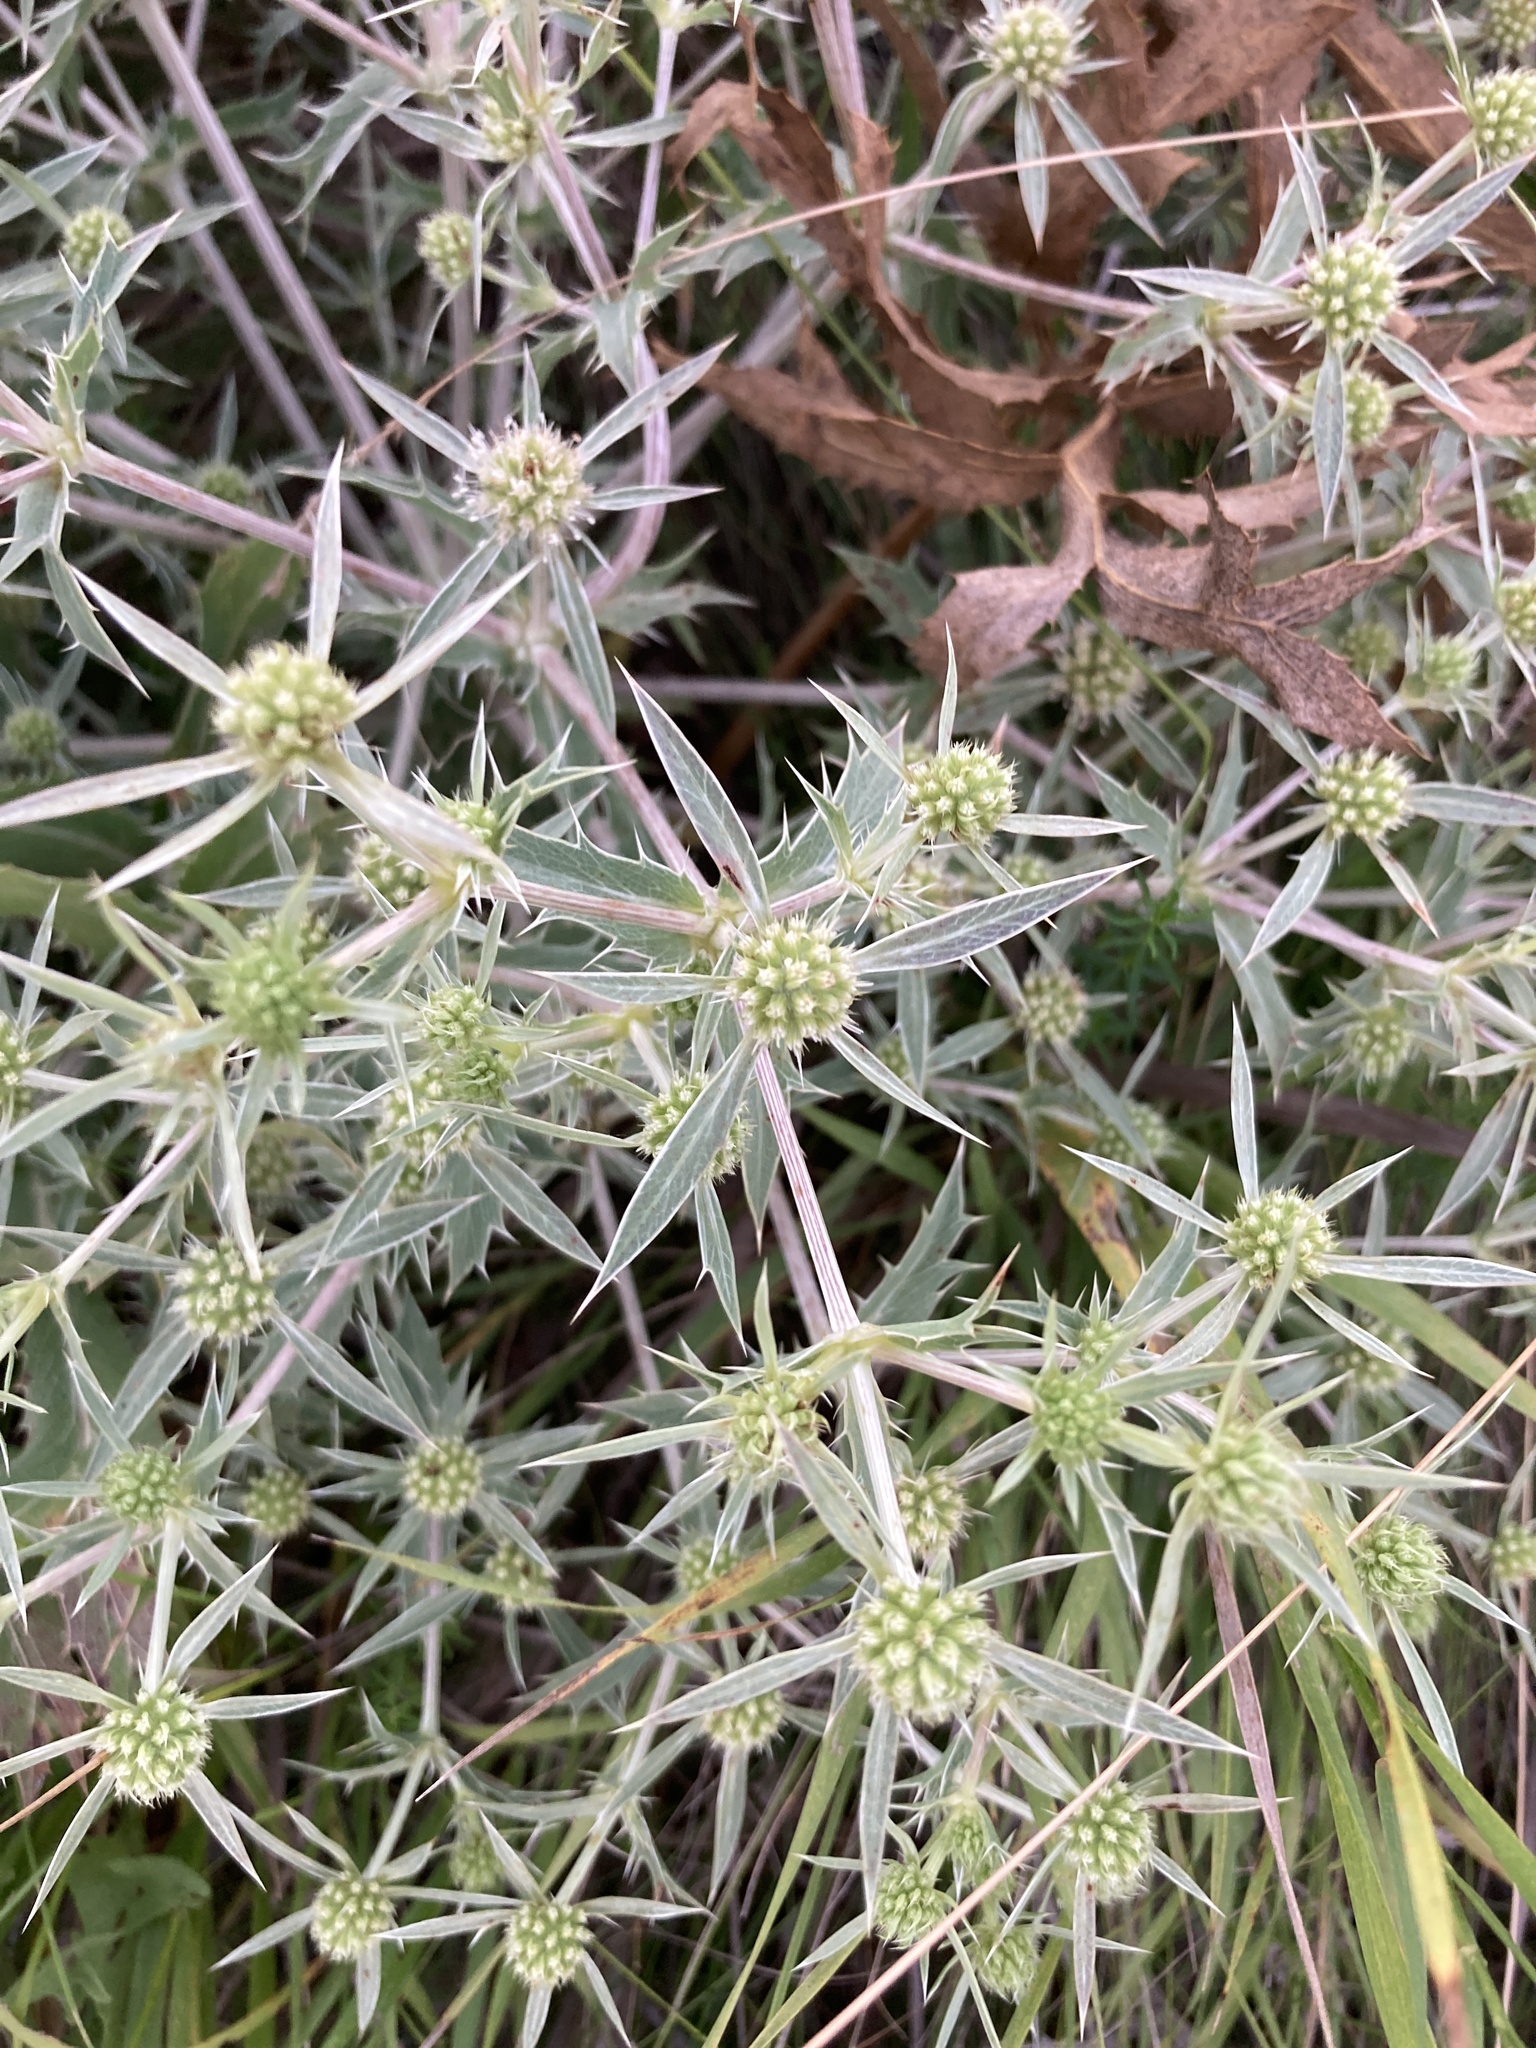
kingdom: Plantae
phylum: Tracheophyta
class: Magnoliopsida
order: Apiales
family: Apiaceae
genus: Eryngium
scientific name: Eryngium campestre
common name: Field eryngo
